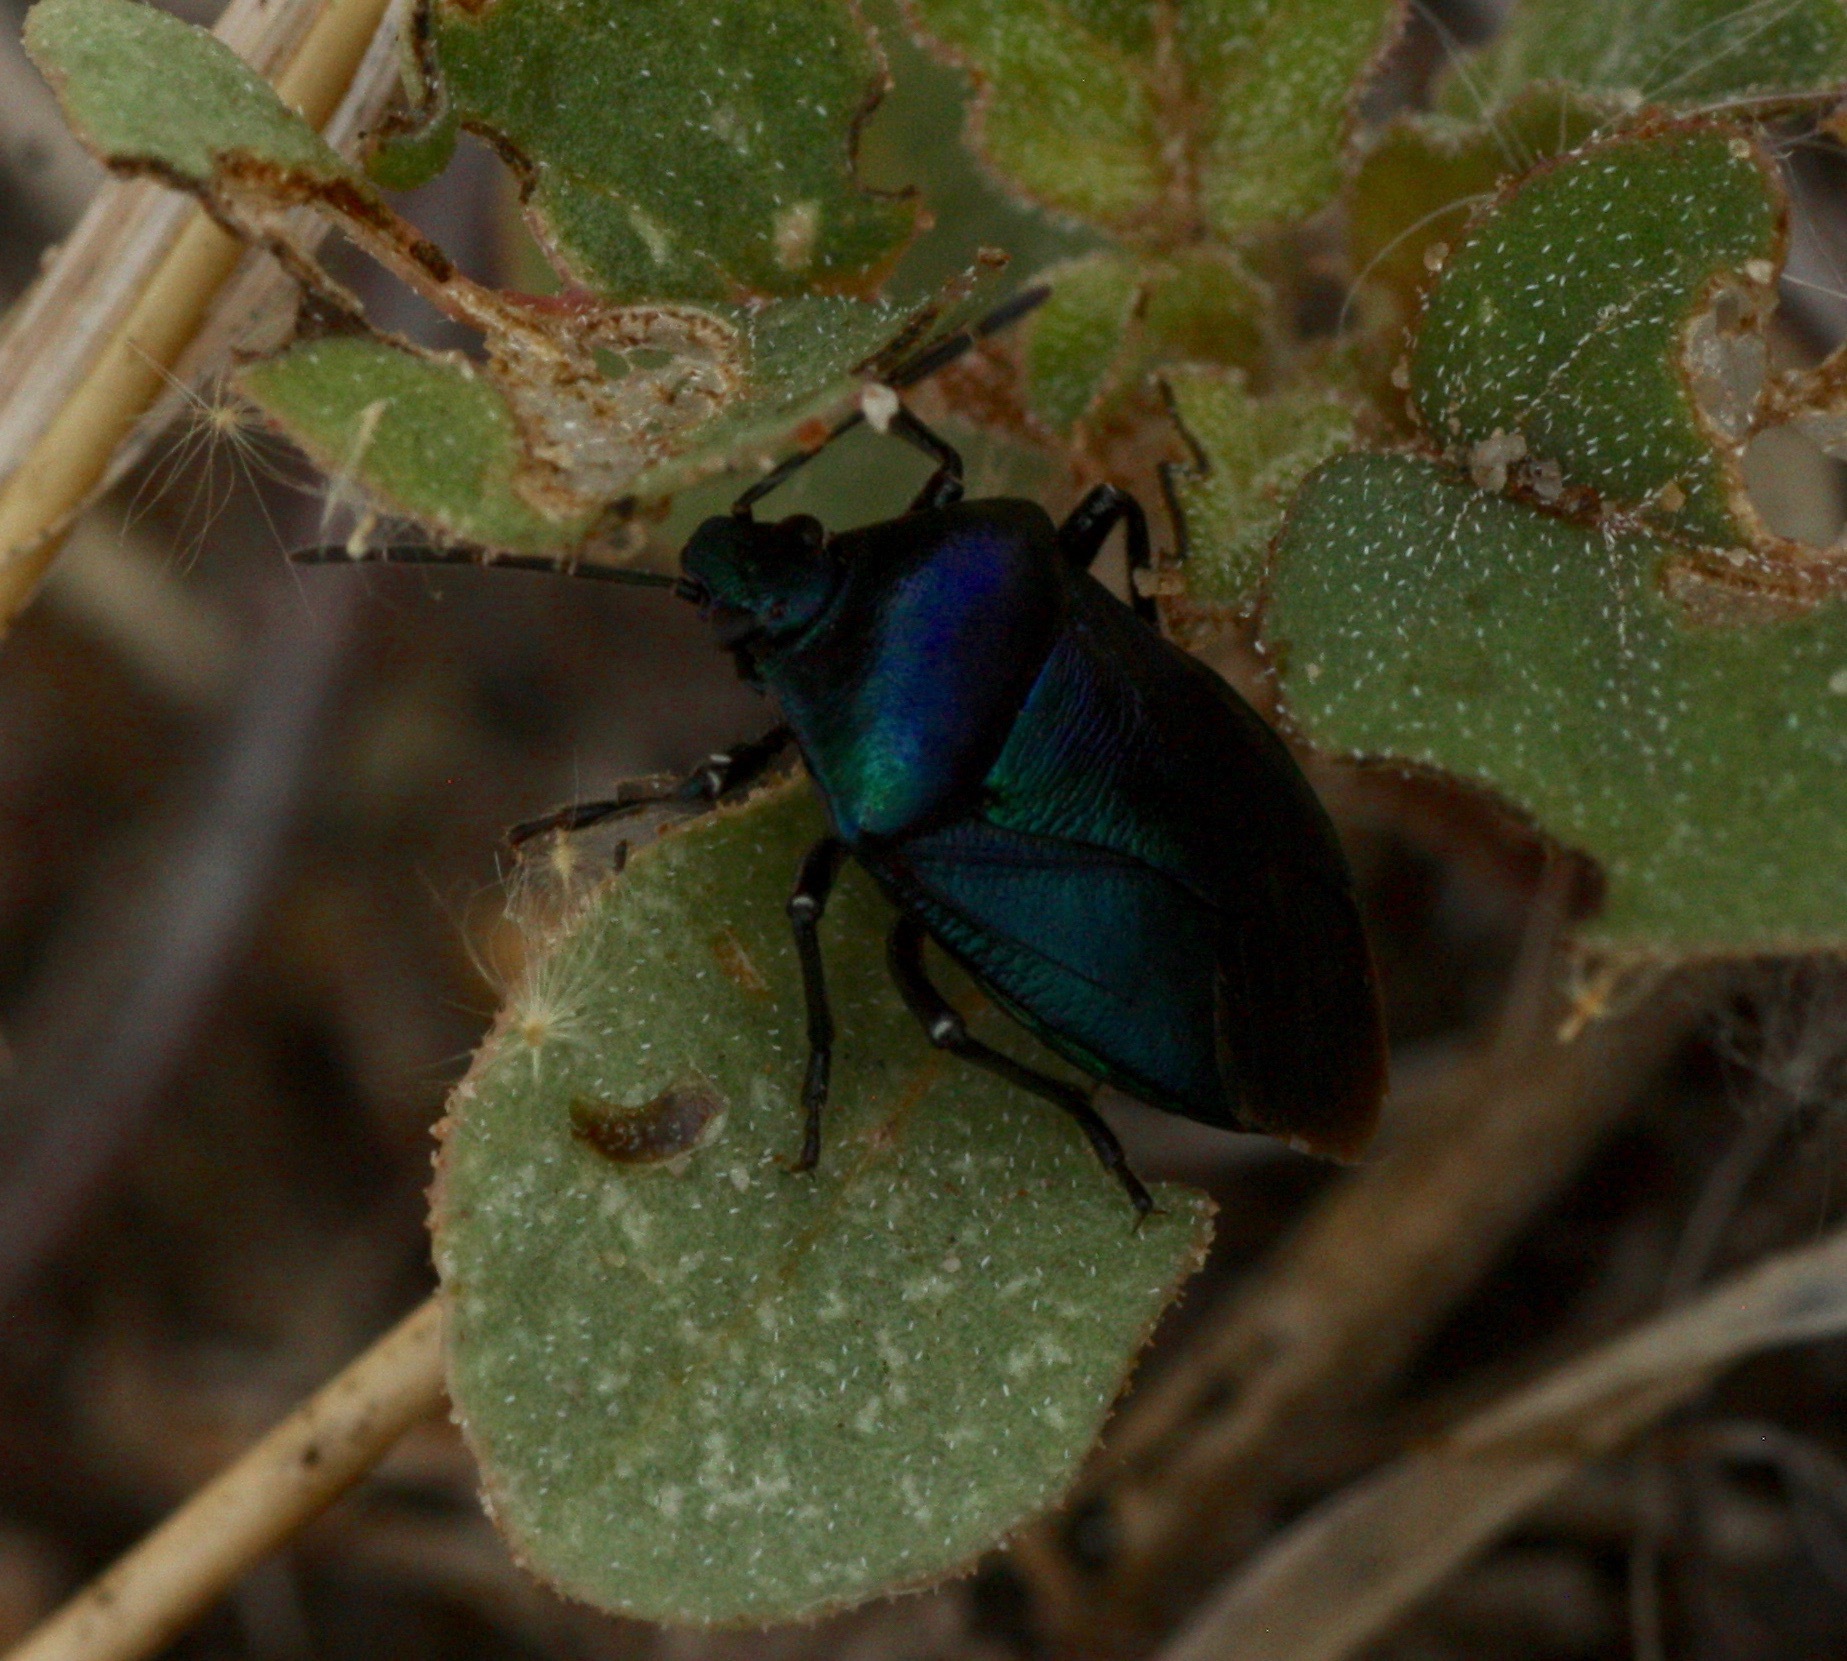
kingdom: Animalia
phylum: Arthropoda
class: Insecta
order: Hemiptera
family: Pentatomidae
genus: Zicrona
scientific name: Zicrona
